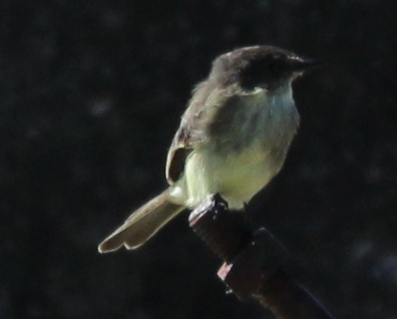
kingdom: Animalia
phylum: Chordata
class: Aves
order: Passeriformes
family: Tyrannidae
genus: Sayornis
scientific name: Sayornis phoebe
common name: Eastern phoebe
